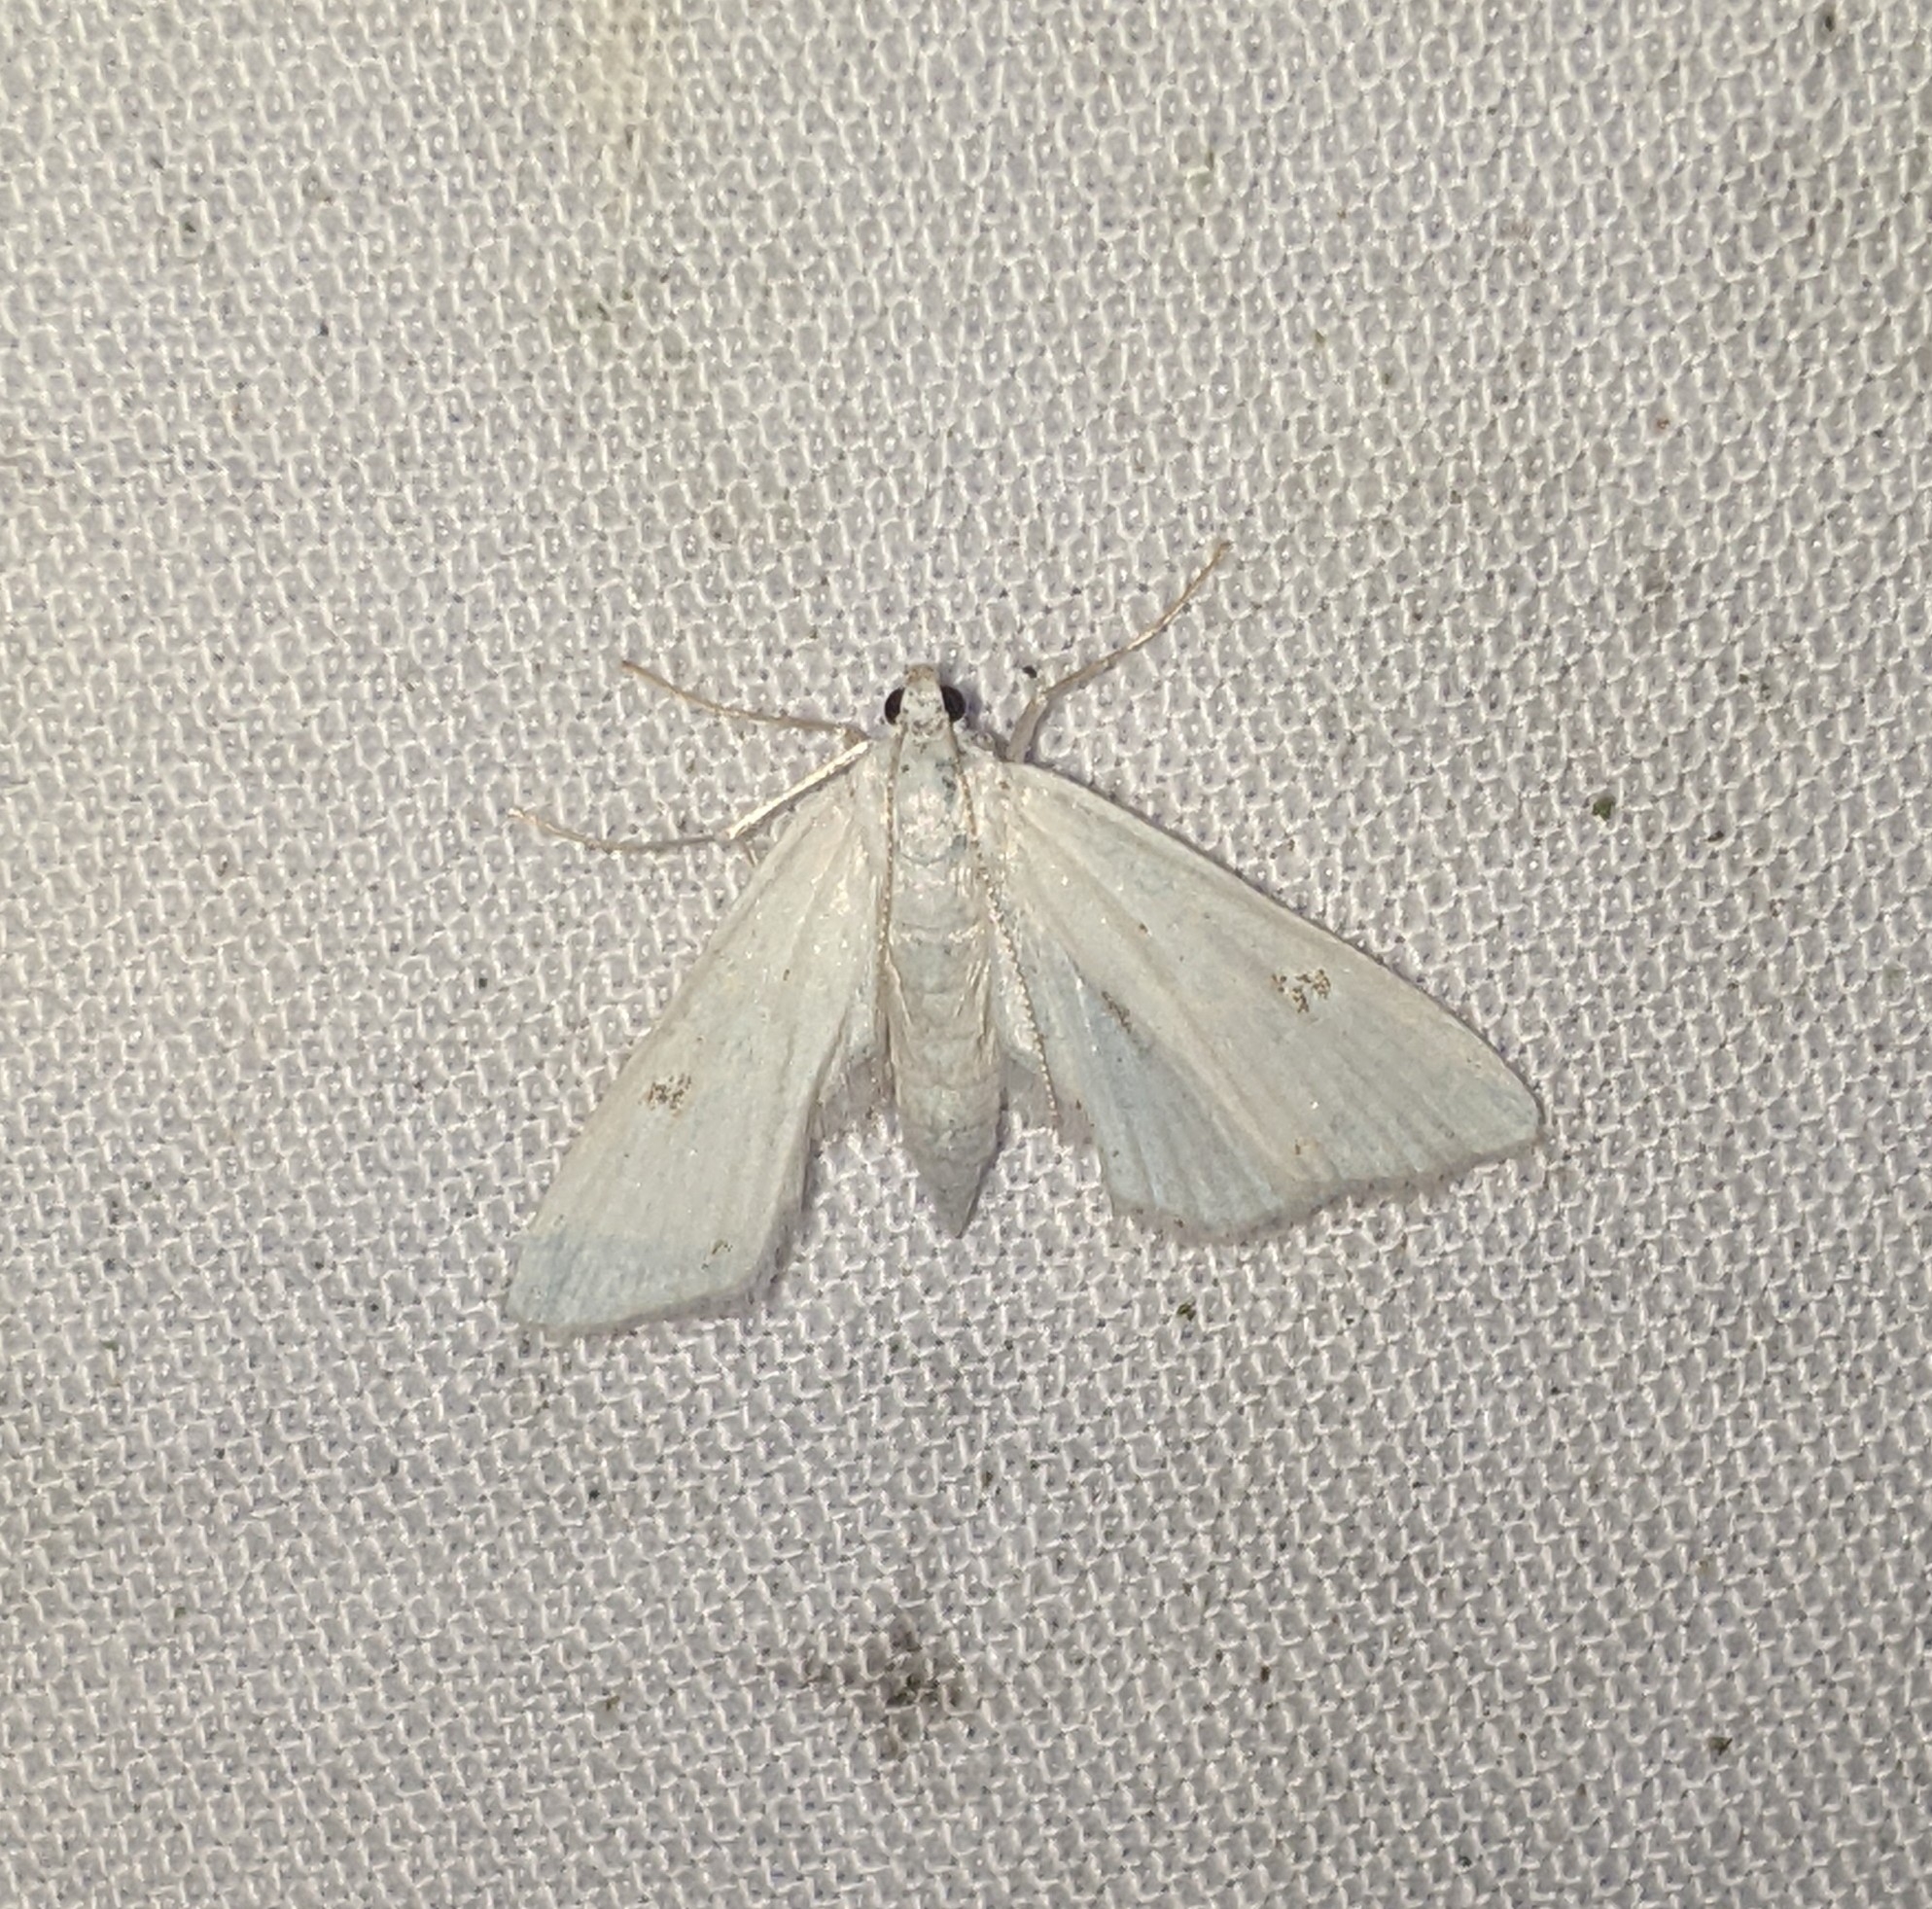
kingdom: Animalia
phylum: Arthropoda
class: Insecta
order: Lepidoptera
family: Crambidae
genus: Parapoynx
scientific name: Parapoynx allionealis
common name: Bladderwort casemaker
